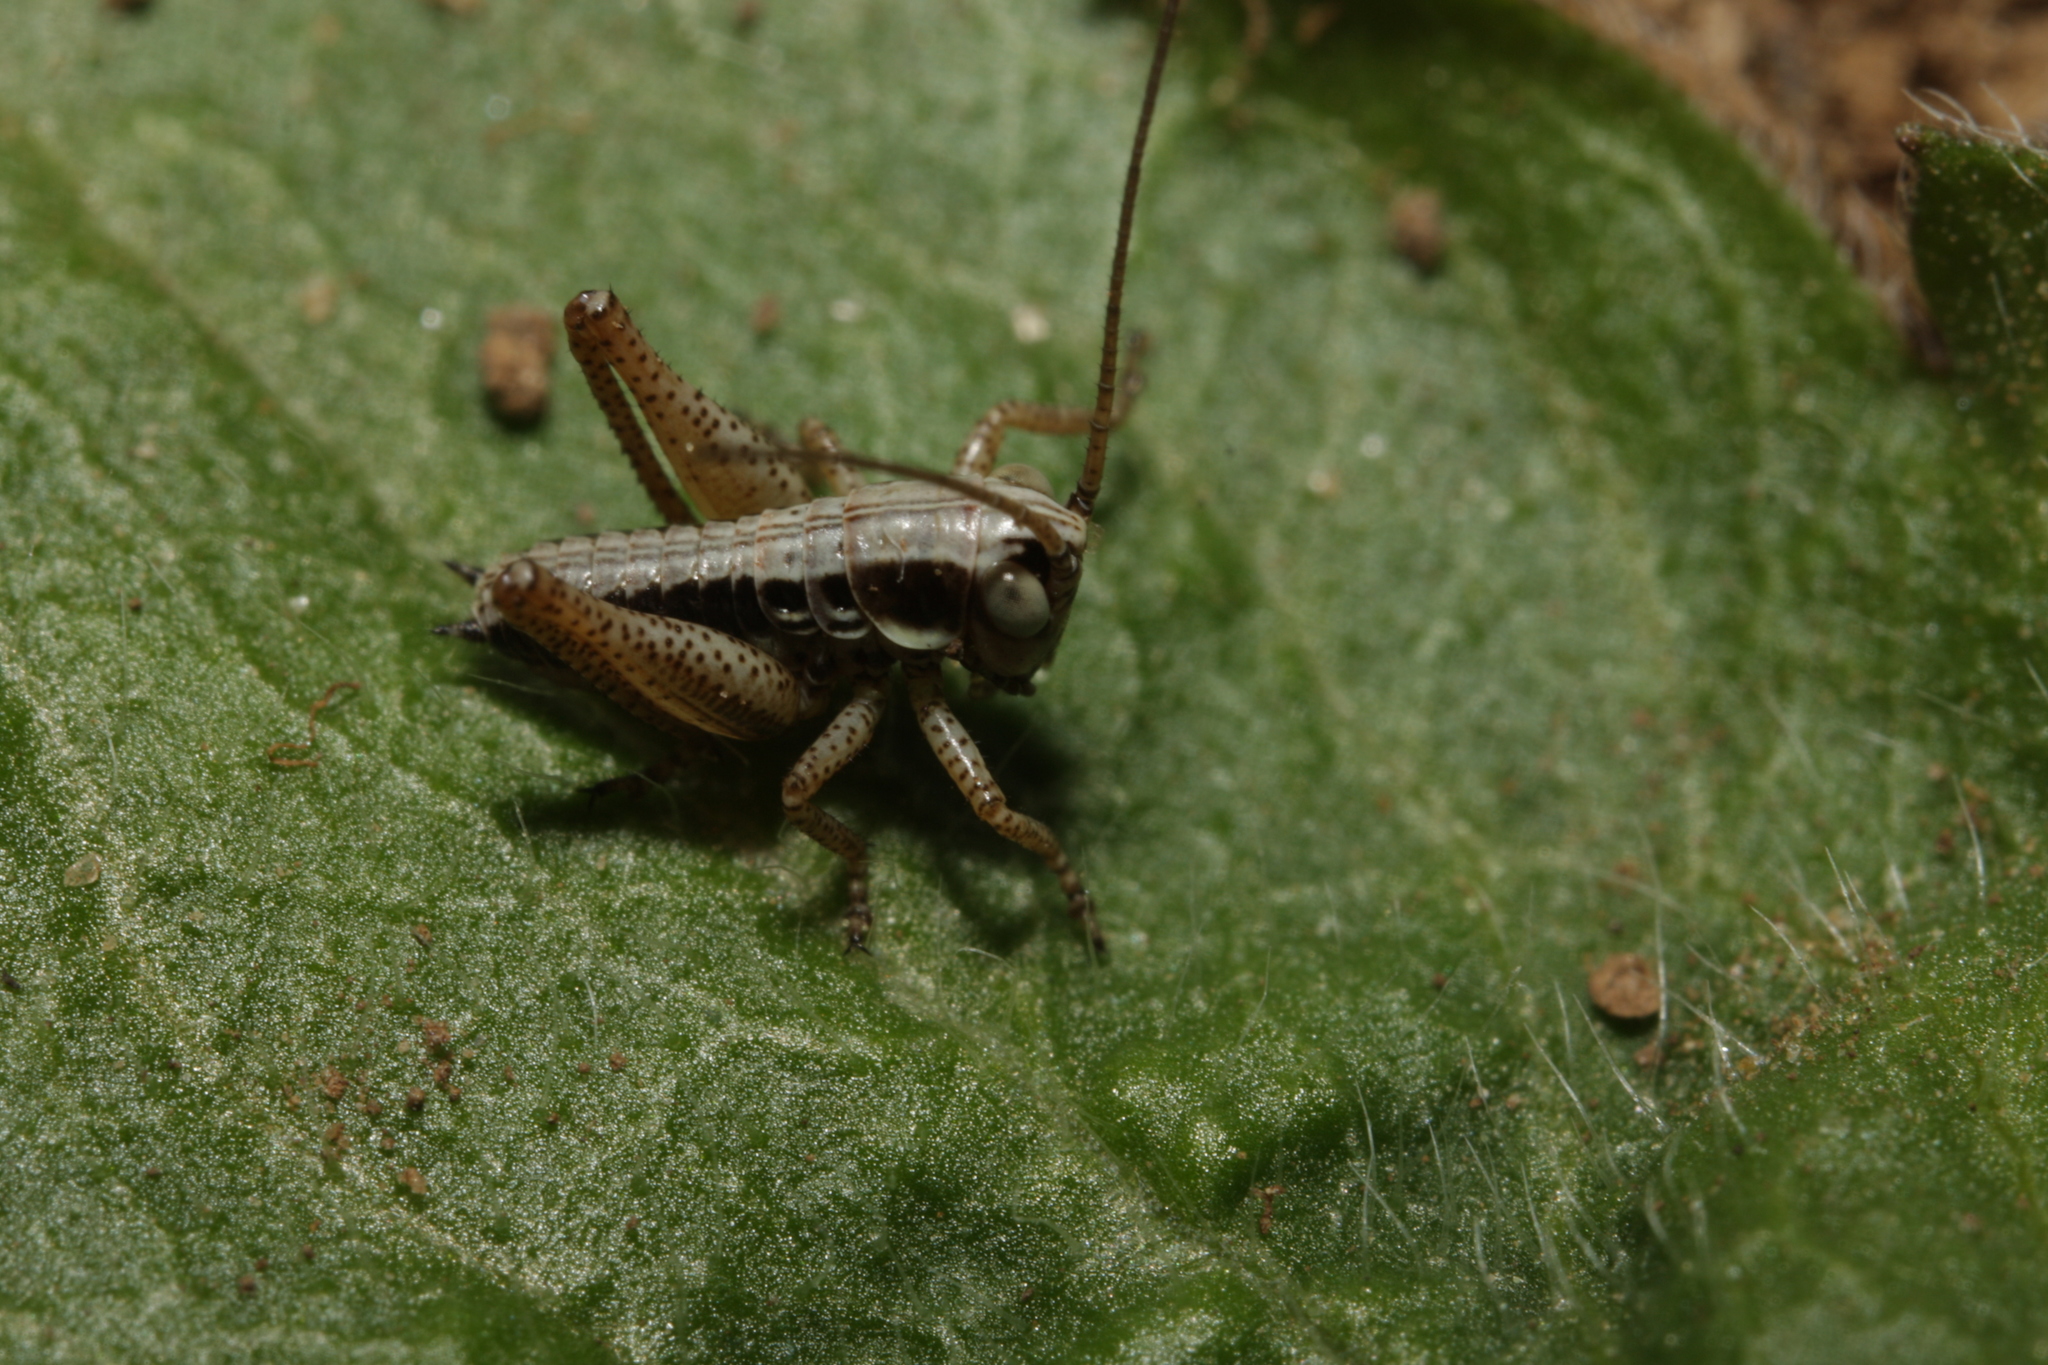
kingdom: Animalia
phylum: Arthropoda
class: Insecta
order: Orthoptera
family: Tettigoniidae
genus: Roeseliana
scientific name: Roeseliana roeselii
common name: Roesel's bush cricket
